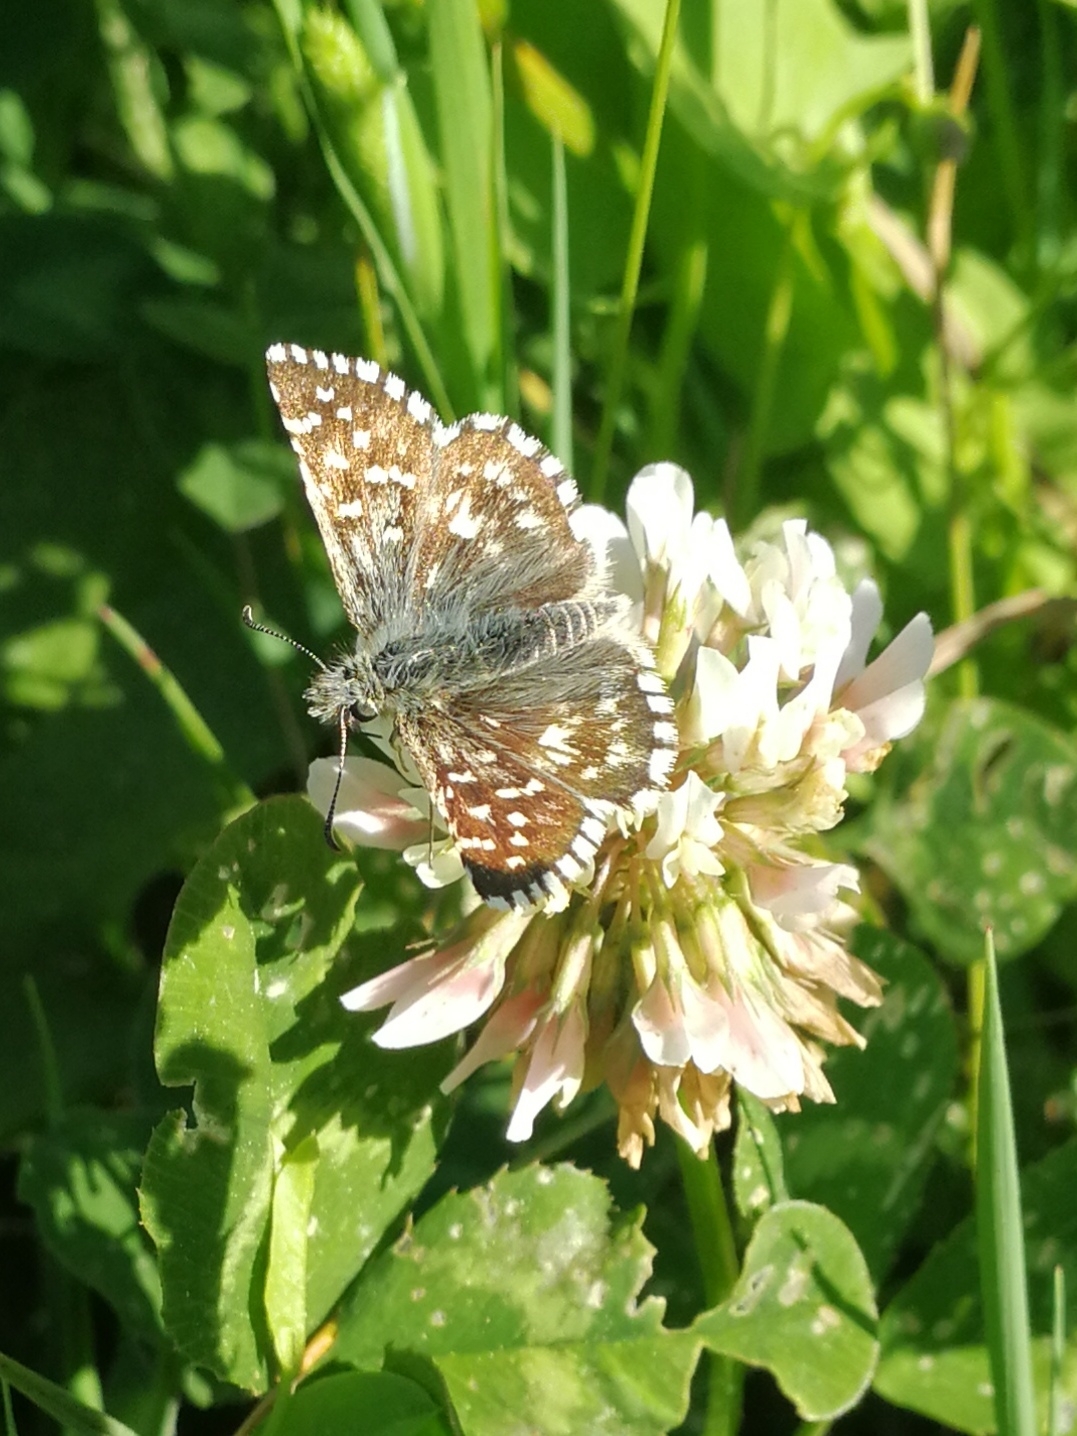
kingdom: Animalia
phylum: Arthropoda
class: Insecta
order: Lepidoptera
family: Hesperiidae
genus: Pyrgus
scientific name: Pyrgus malvoides
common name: Southern grizzled skipper
